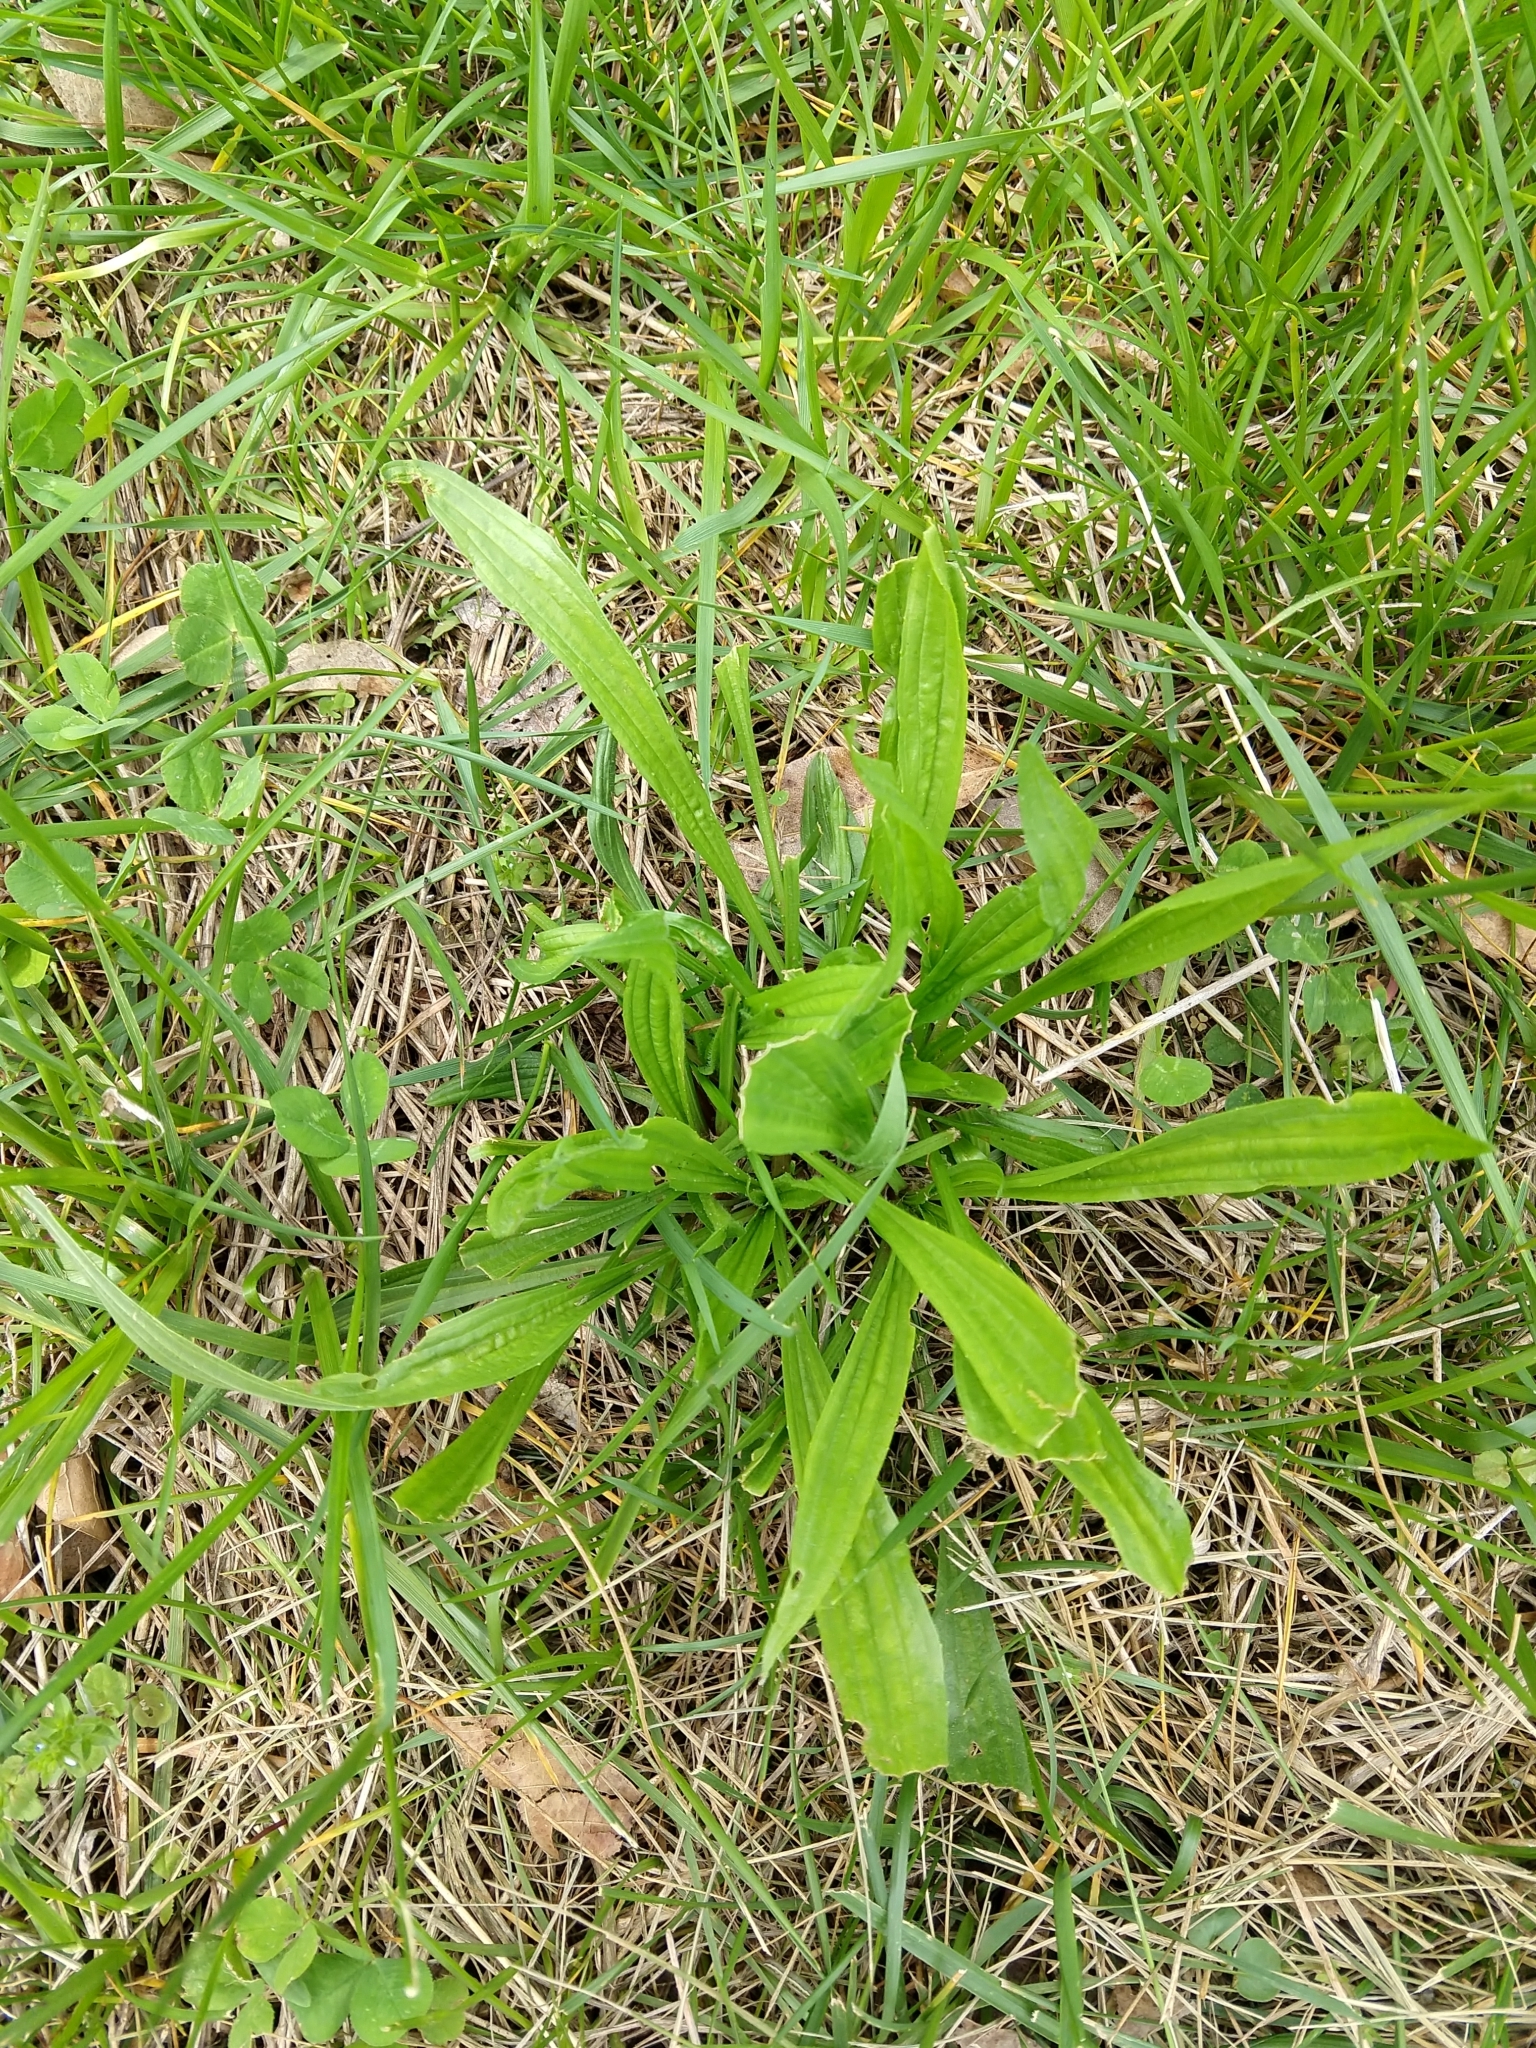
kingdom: Plantae
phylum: Tracheophyta
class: Magnoliopsida
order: Lamiales
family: Plantaginaceae
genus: Plantago
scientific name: Plantago lanceolata
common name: Ribwort plantain
